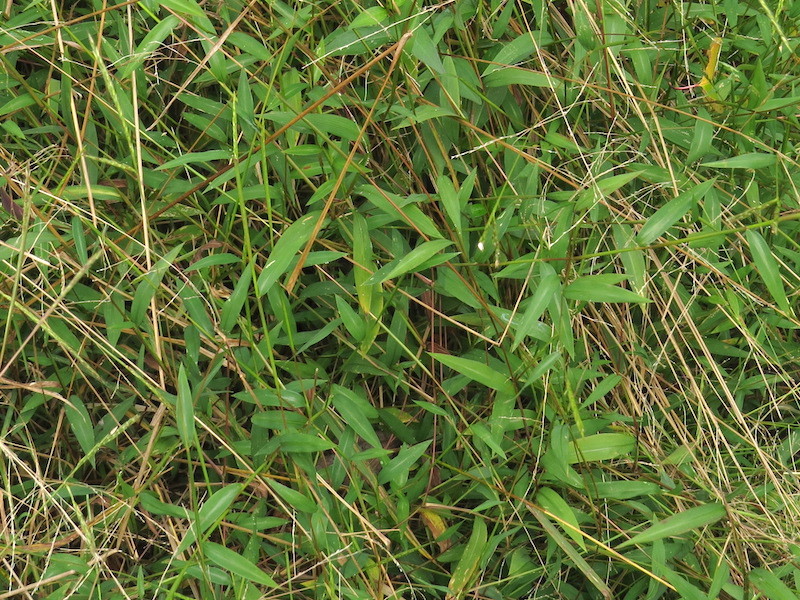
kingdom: Plantae
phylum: Tracheophyta
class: Liliopsida
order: Poales
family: Poaceae
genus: Microstegium
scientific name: Microstegium vimineum
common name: Japanese stiltgrass
